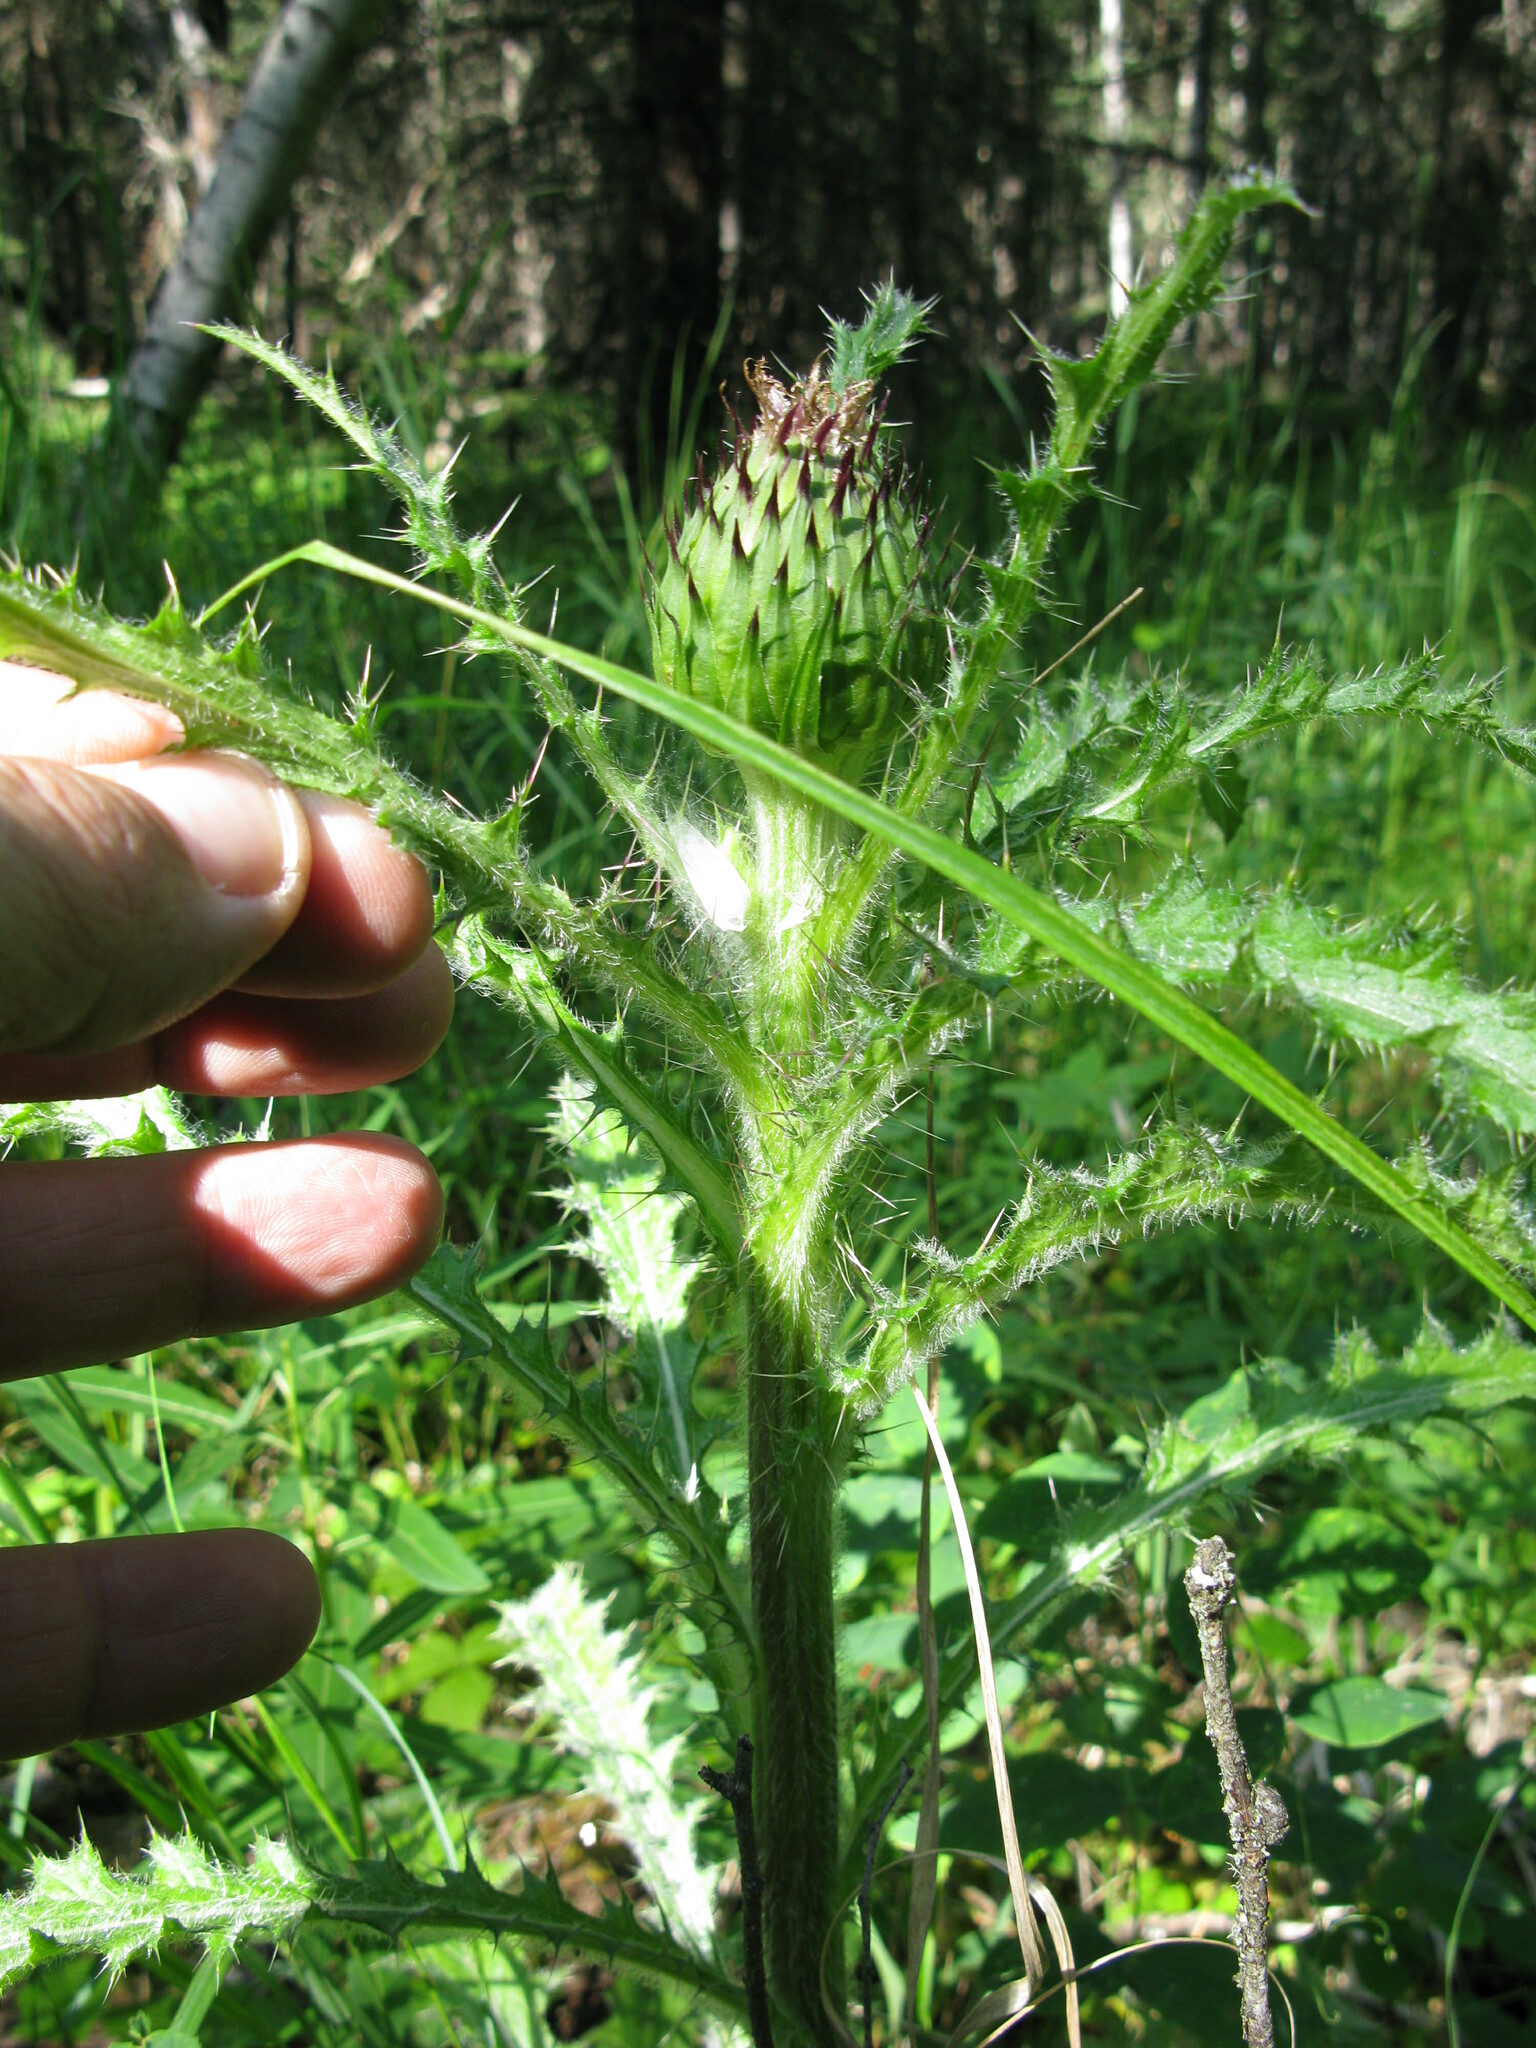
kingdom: Plantae
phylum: Tracheophyta
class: Magnoliopsida
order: Asterales
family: Asteraceae
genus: Cirsium
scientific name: Cirsium drummondii
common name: Drummond's thistle
